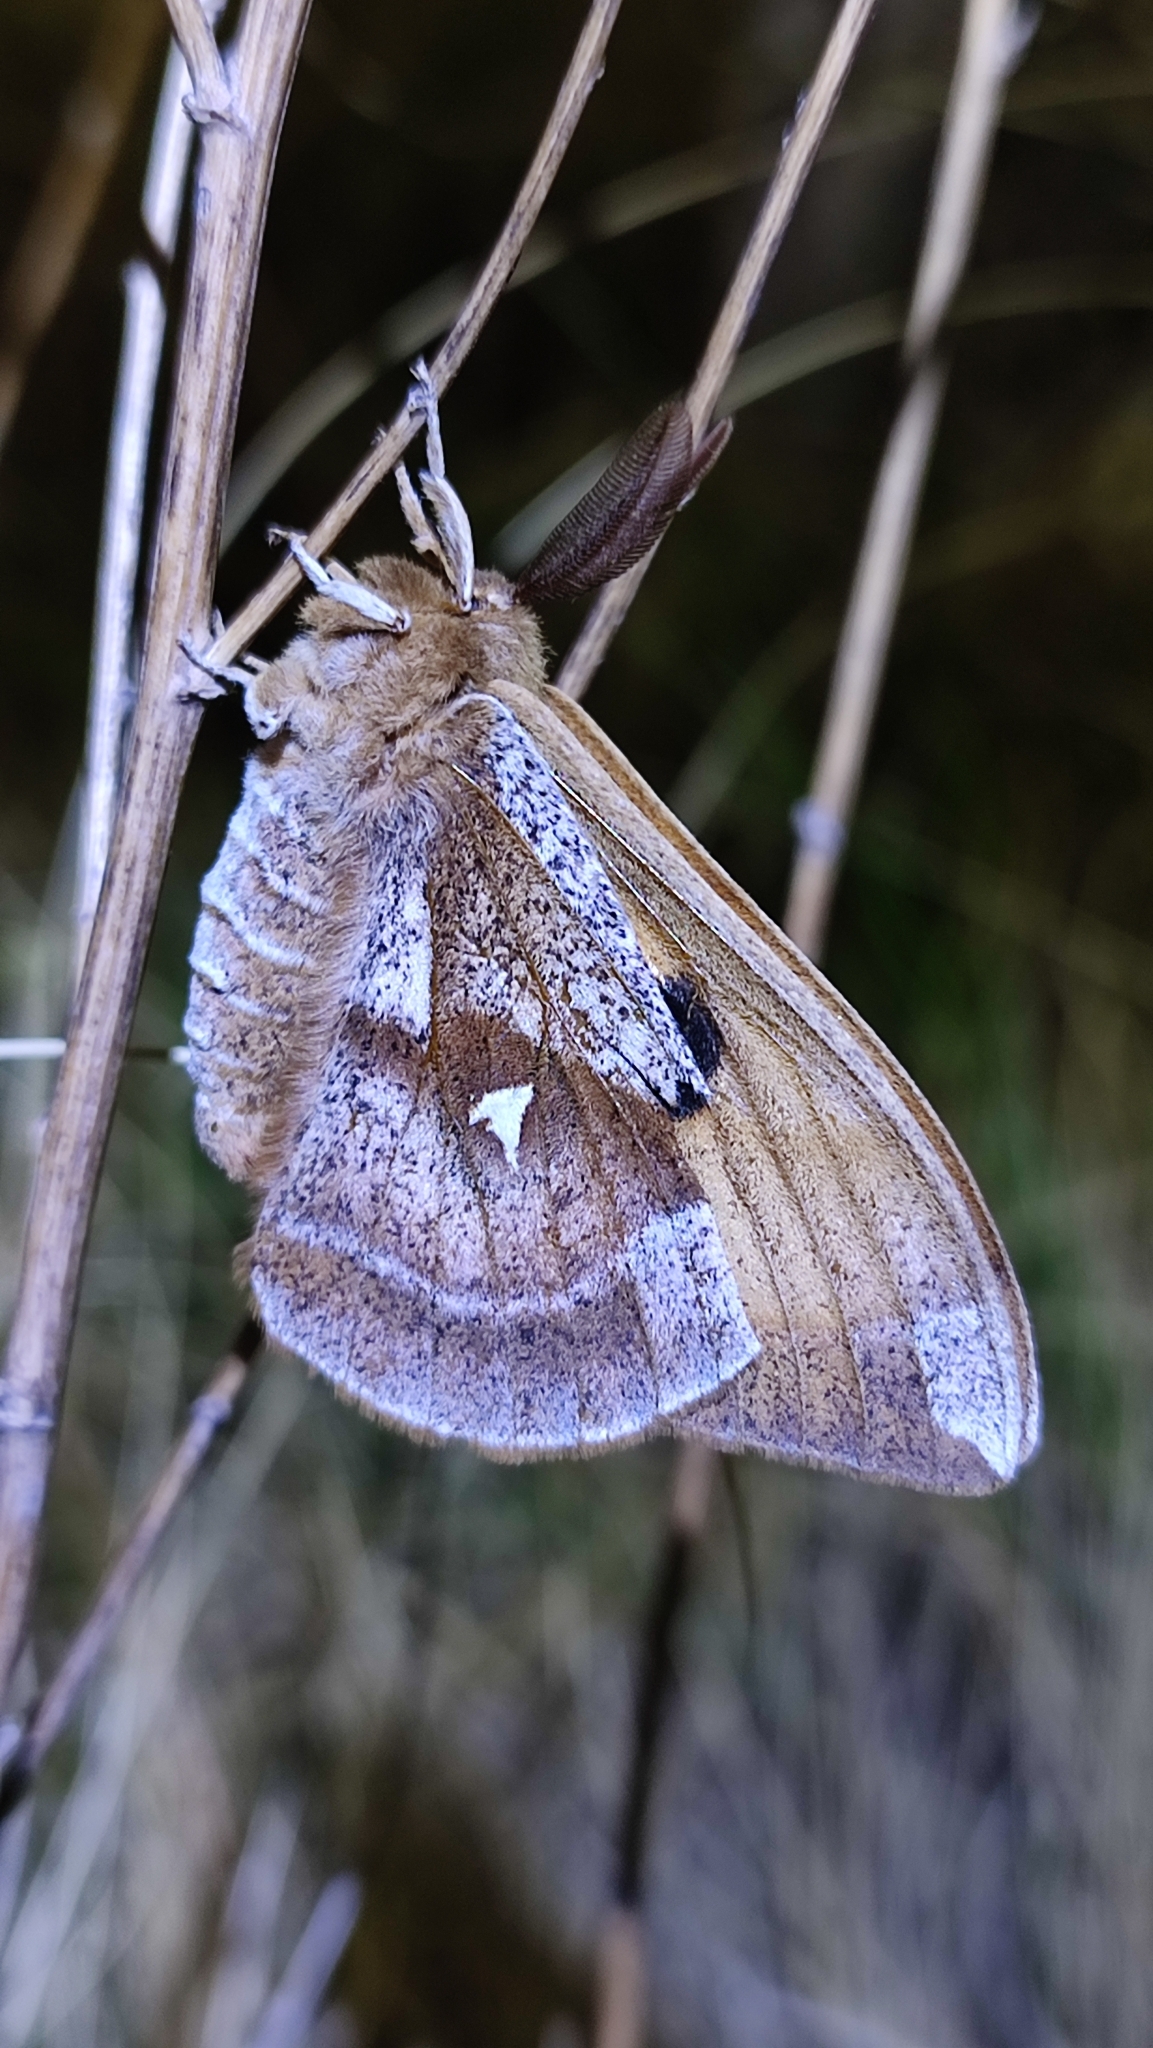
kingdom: Animalia
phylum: Arthropoda
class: Insecta
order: Lepidoptera
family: Saturniidae
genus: Aglia
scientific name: Aglia tau
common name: Tau emperor
